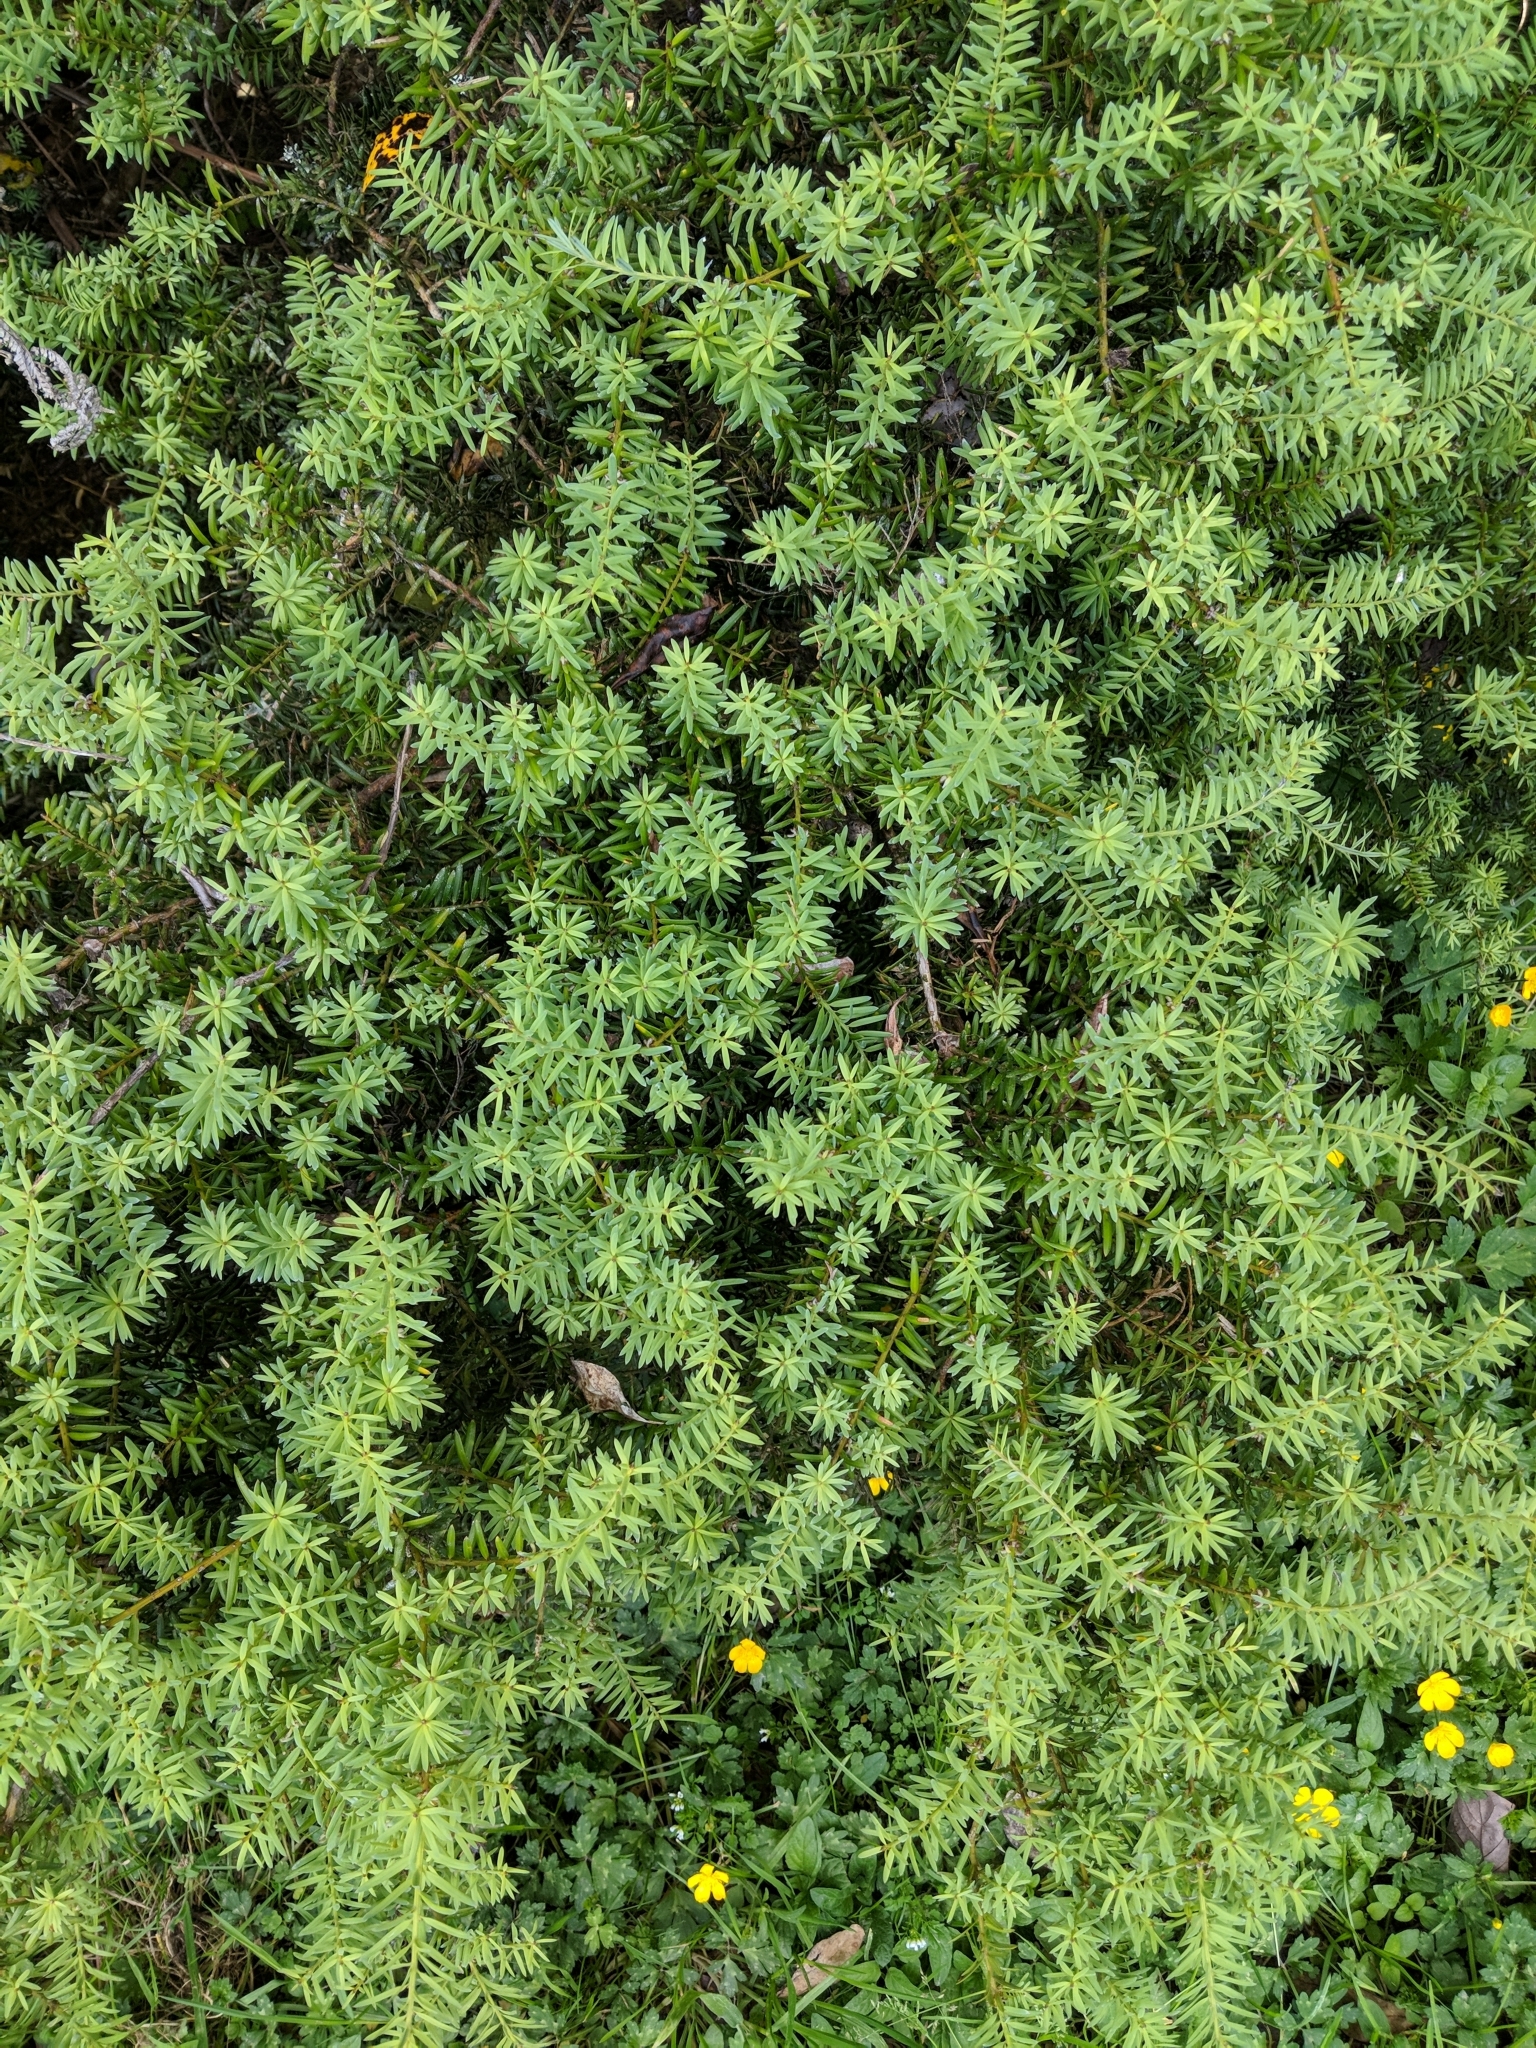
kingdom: Plantae
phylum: Tracheophyta
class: Pinopsida
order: Pinales
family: Podocarpaceae
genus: Podocarpus
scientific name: Podocarpus totara
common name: Totara
